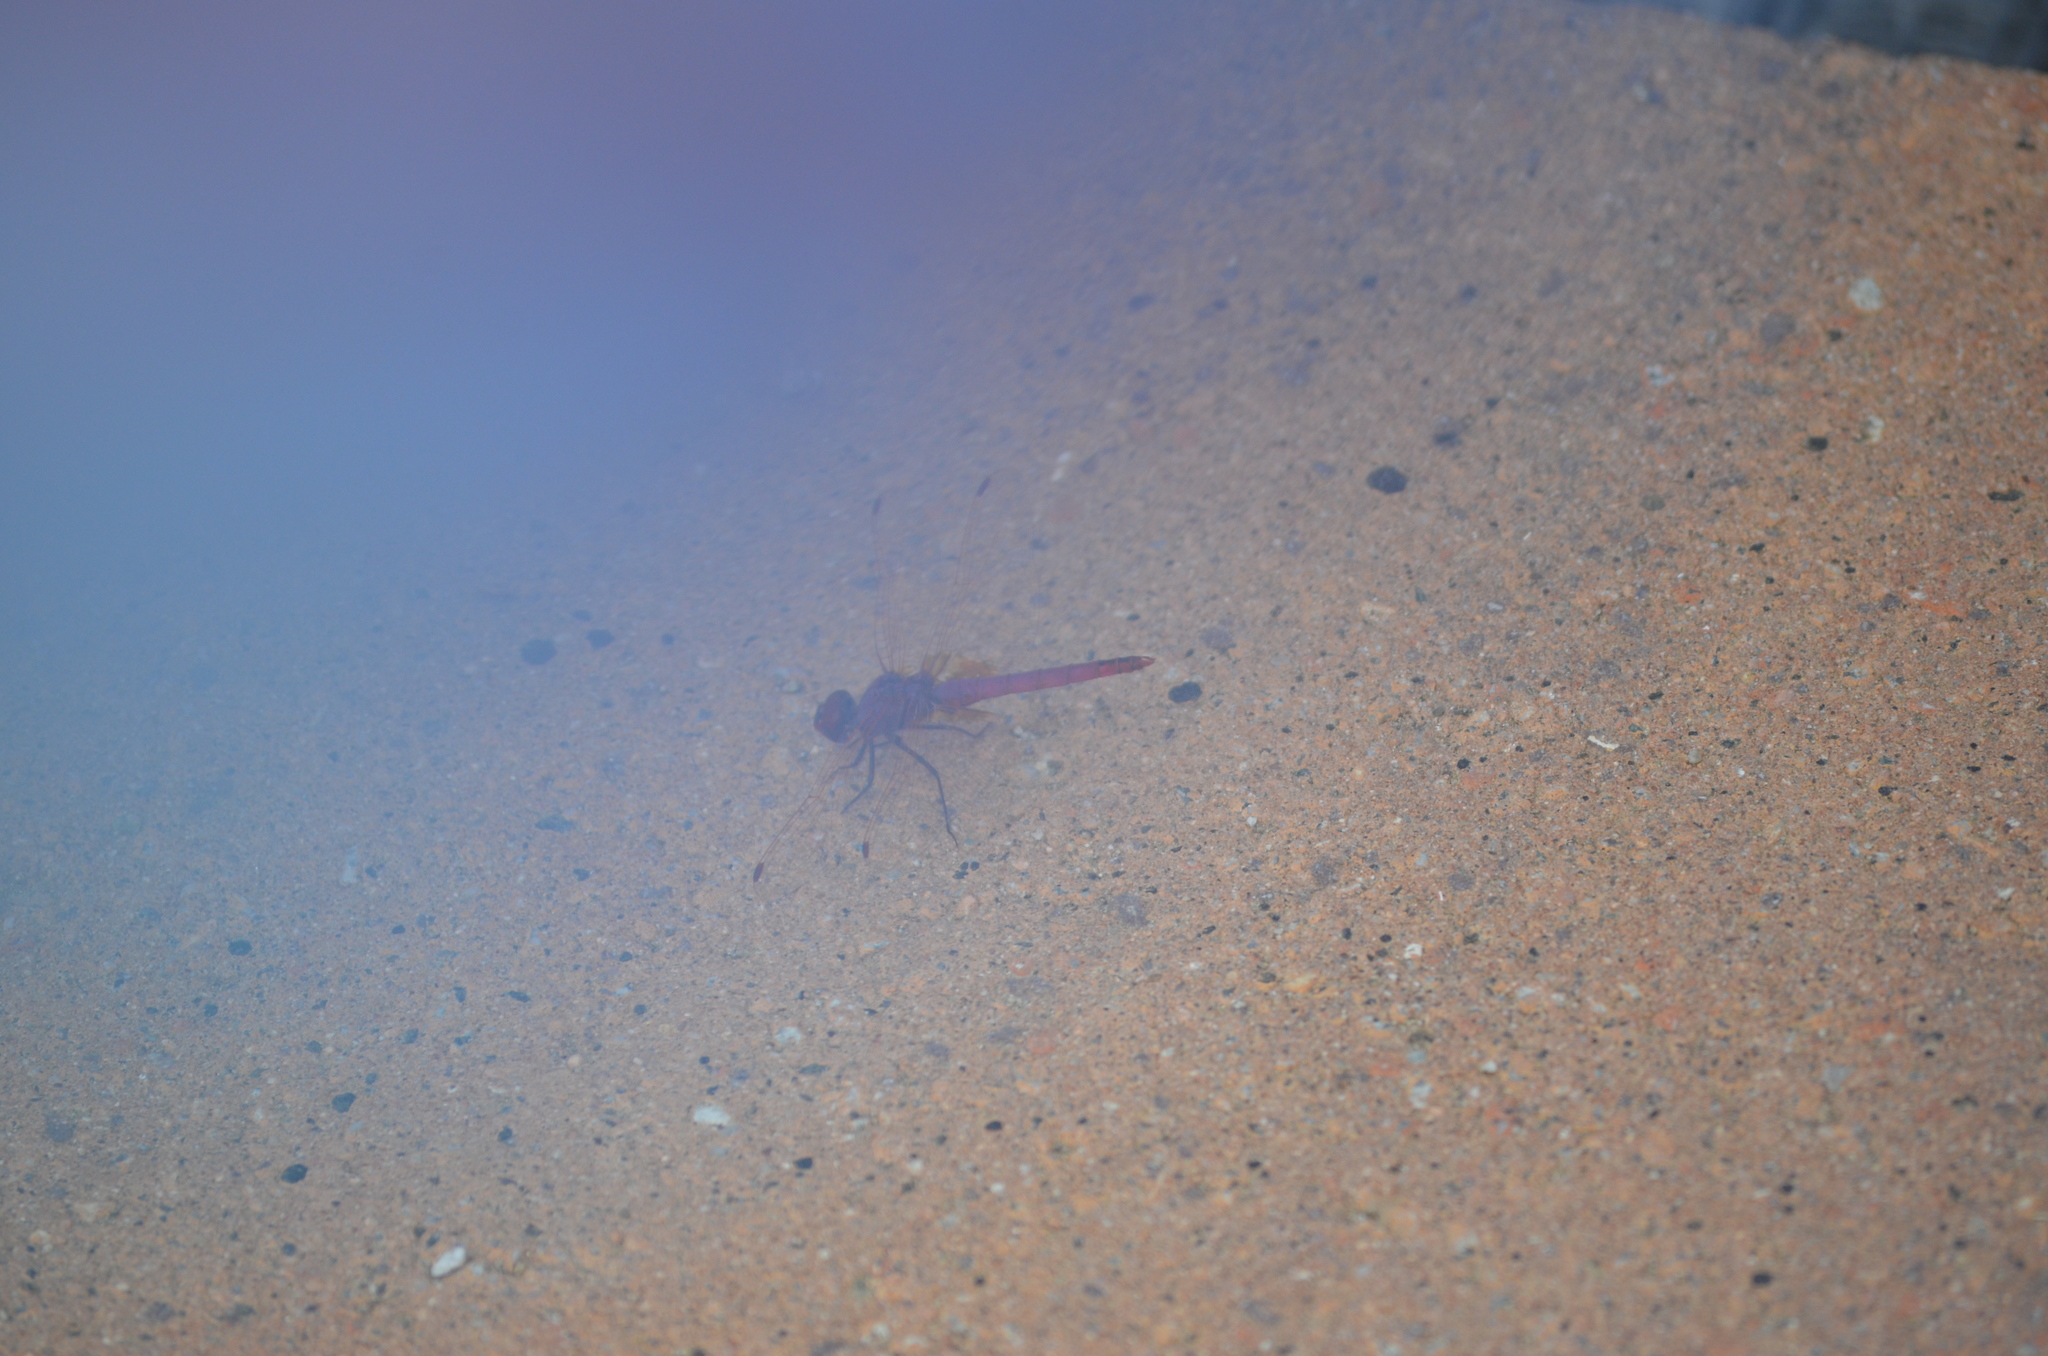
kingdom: Animalia
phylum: Arthropoda
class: Insecta
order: Odonata
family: Libellulidae
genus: Trithemis
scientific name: Trithemis annulata
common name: Violet dropwing
